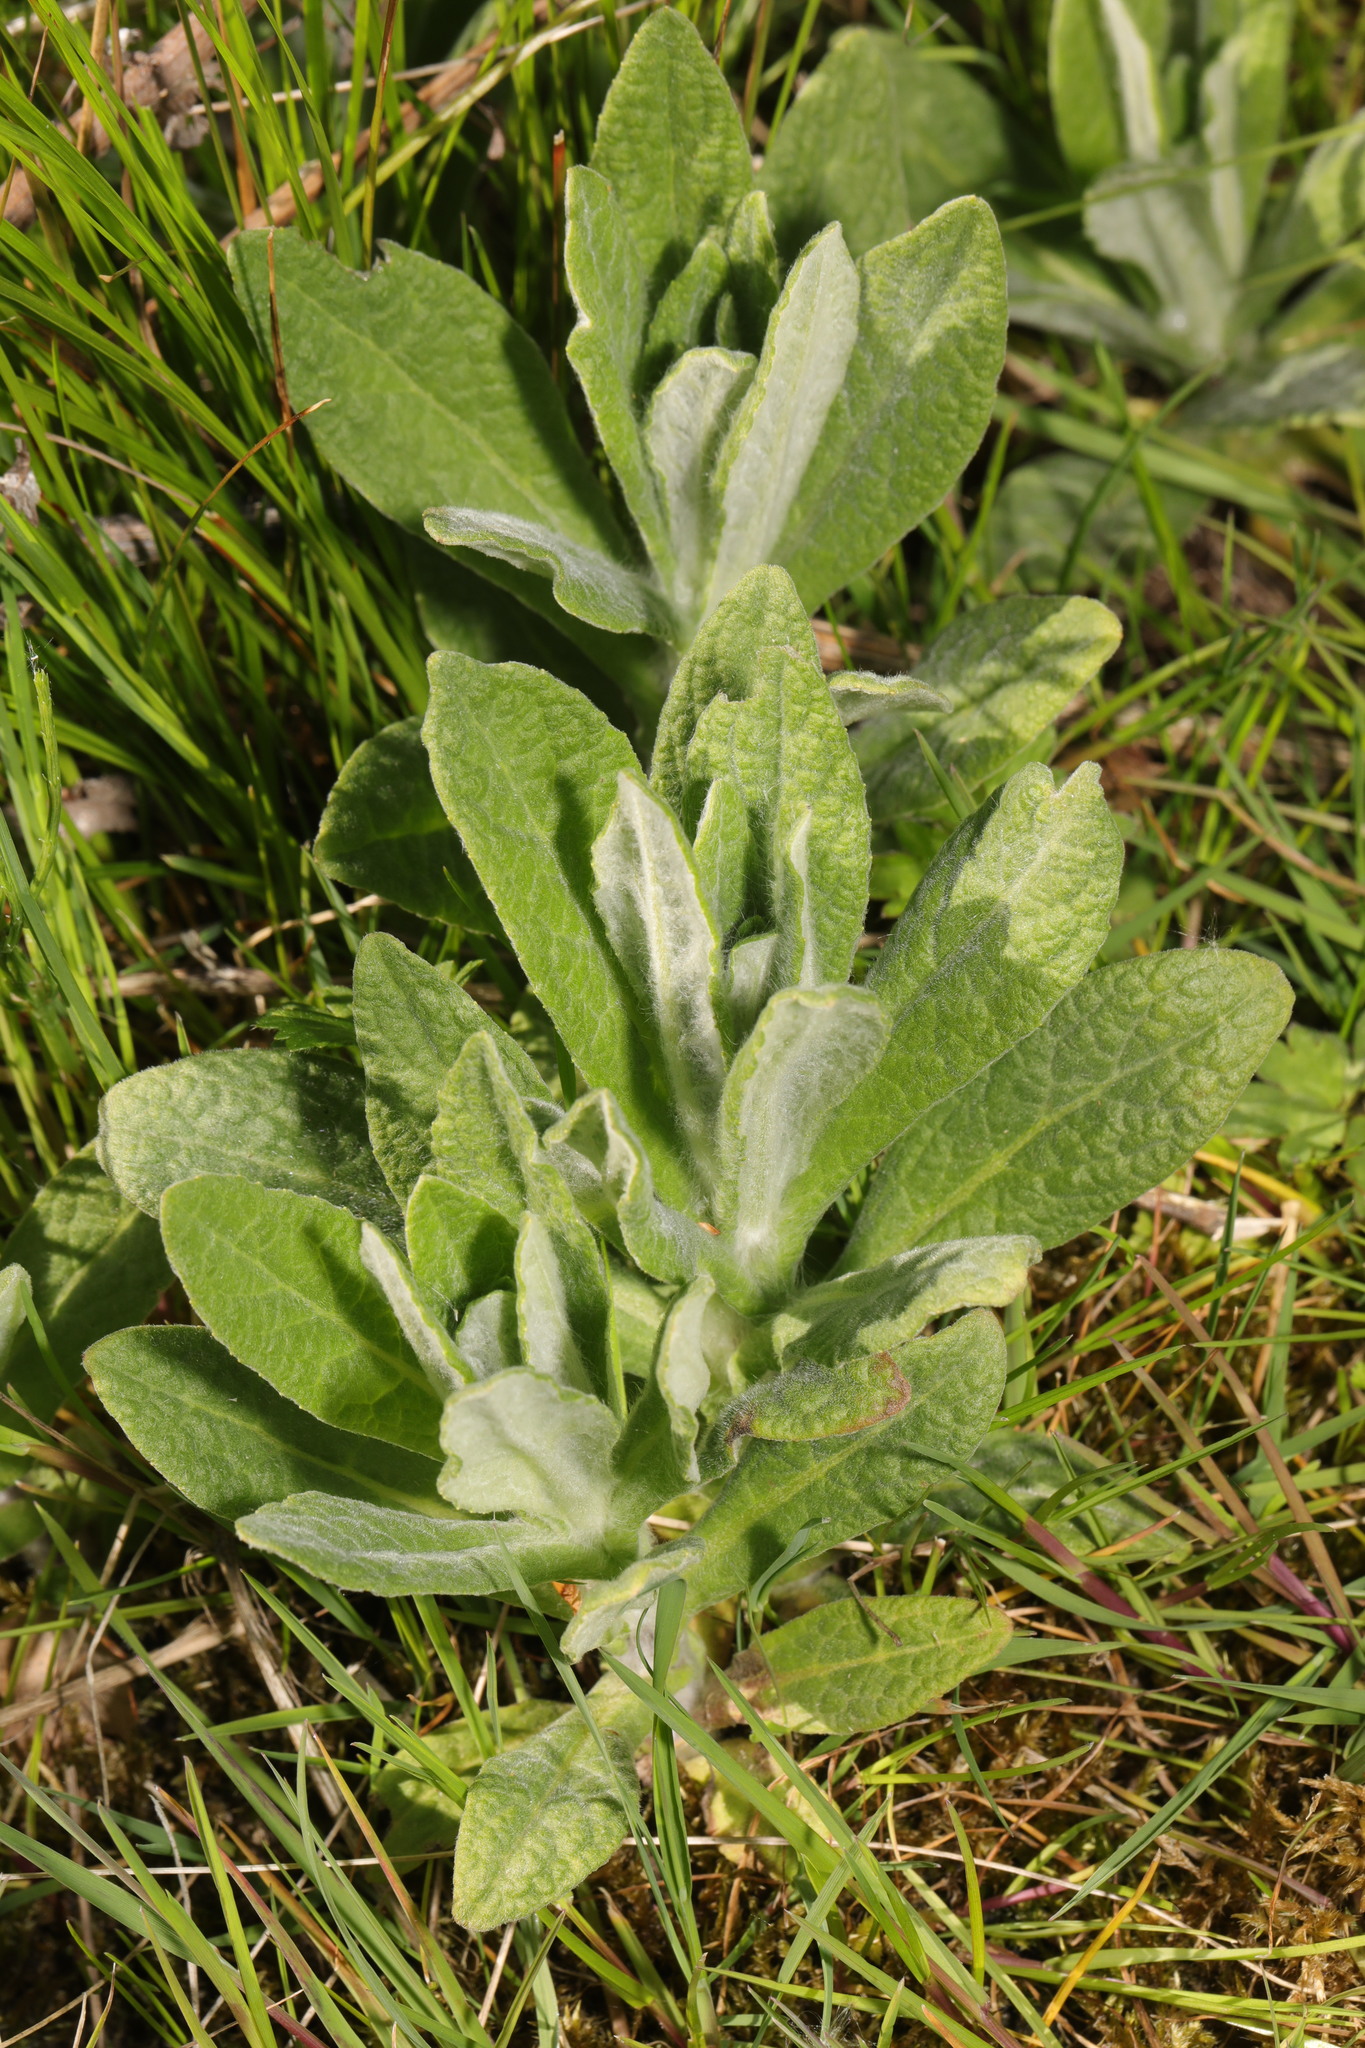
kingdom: Plantae
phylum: Tracheophyta
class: Magnoliopsida
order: Asterales
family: Asteraceae
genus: Pulicaria
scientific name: Pulicaria dysenterica
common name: Common fleabane
